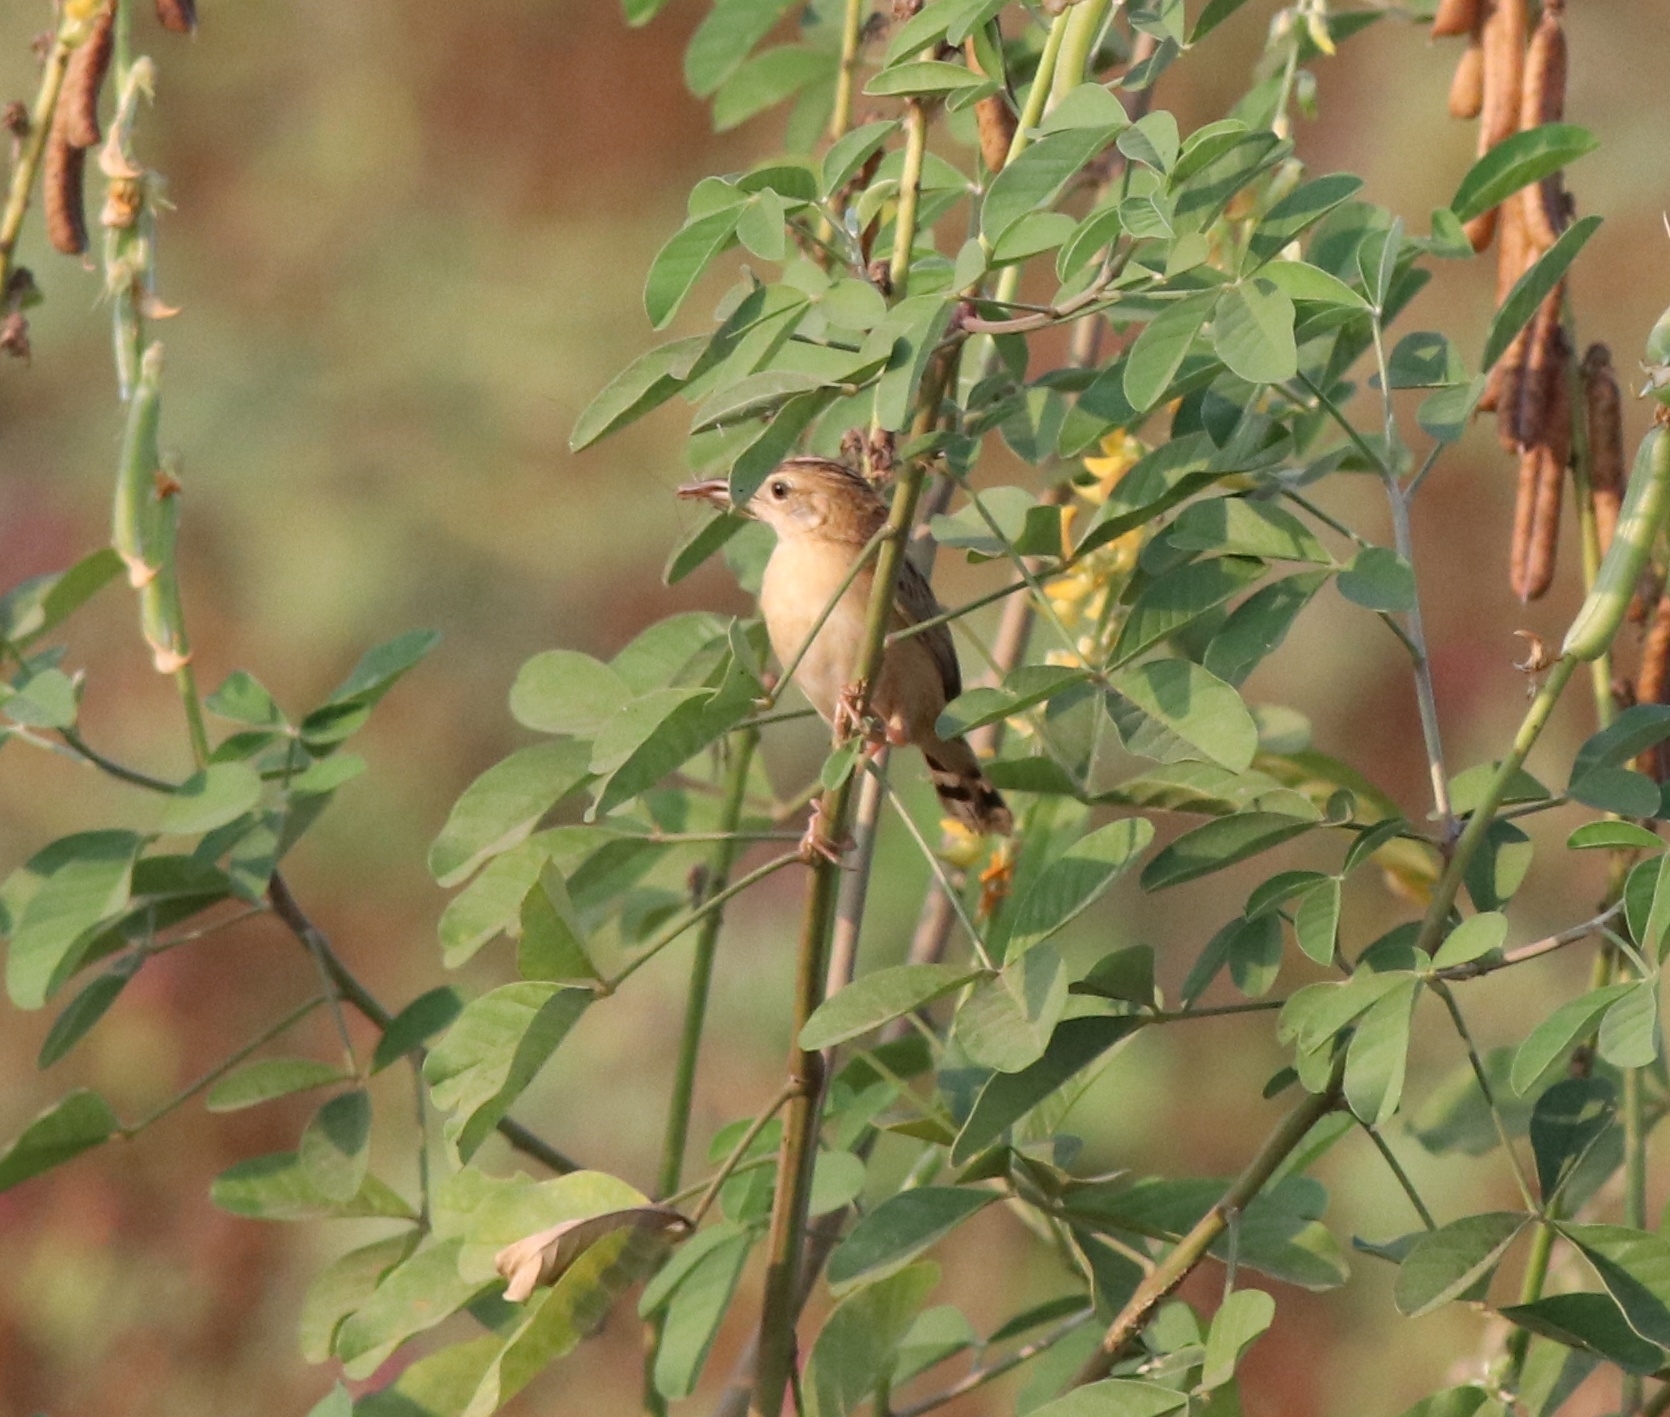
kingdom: Animalia
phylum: Chordata
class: Aves
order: Passeriformes
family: Cisticolidae
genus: Cisticola
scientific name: Cisticola juncidis
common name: Zitting cisticola
